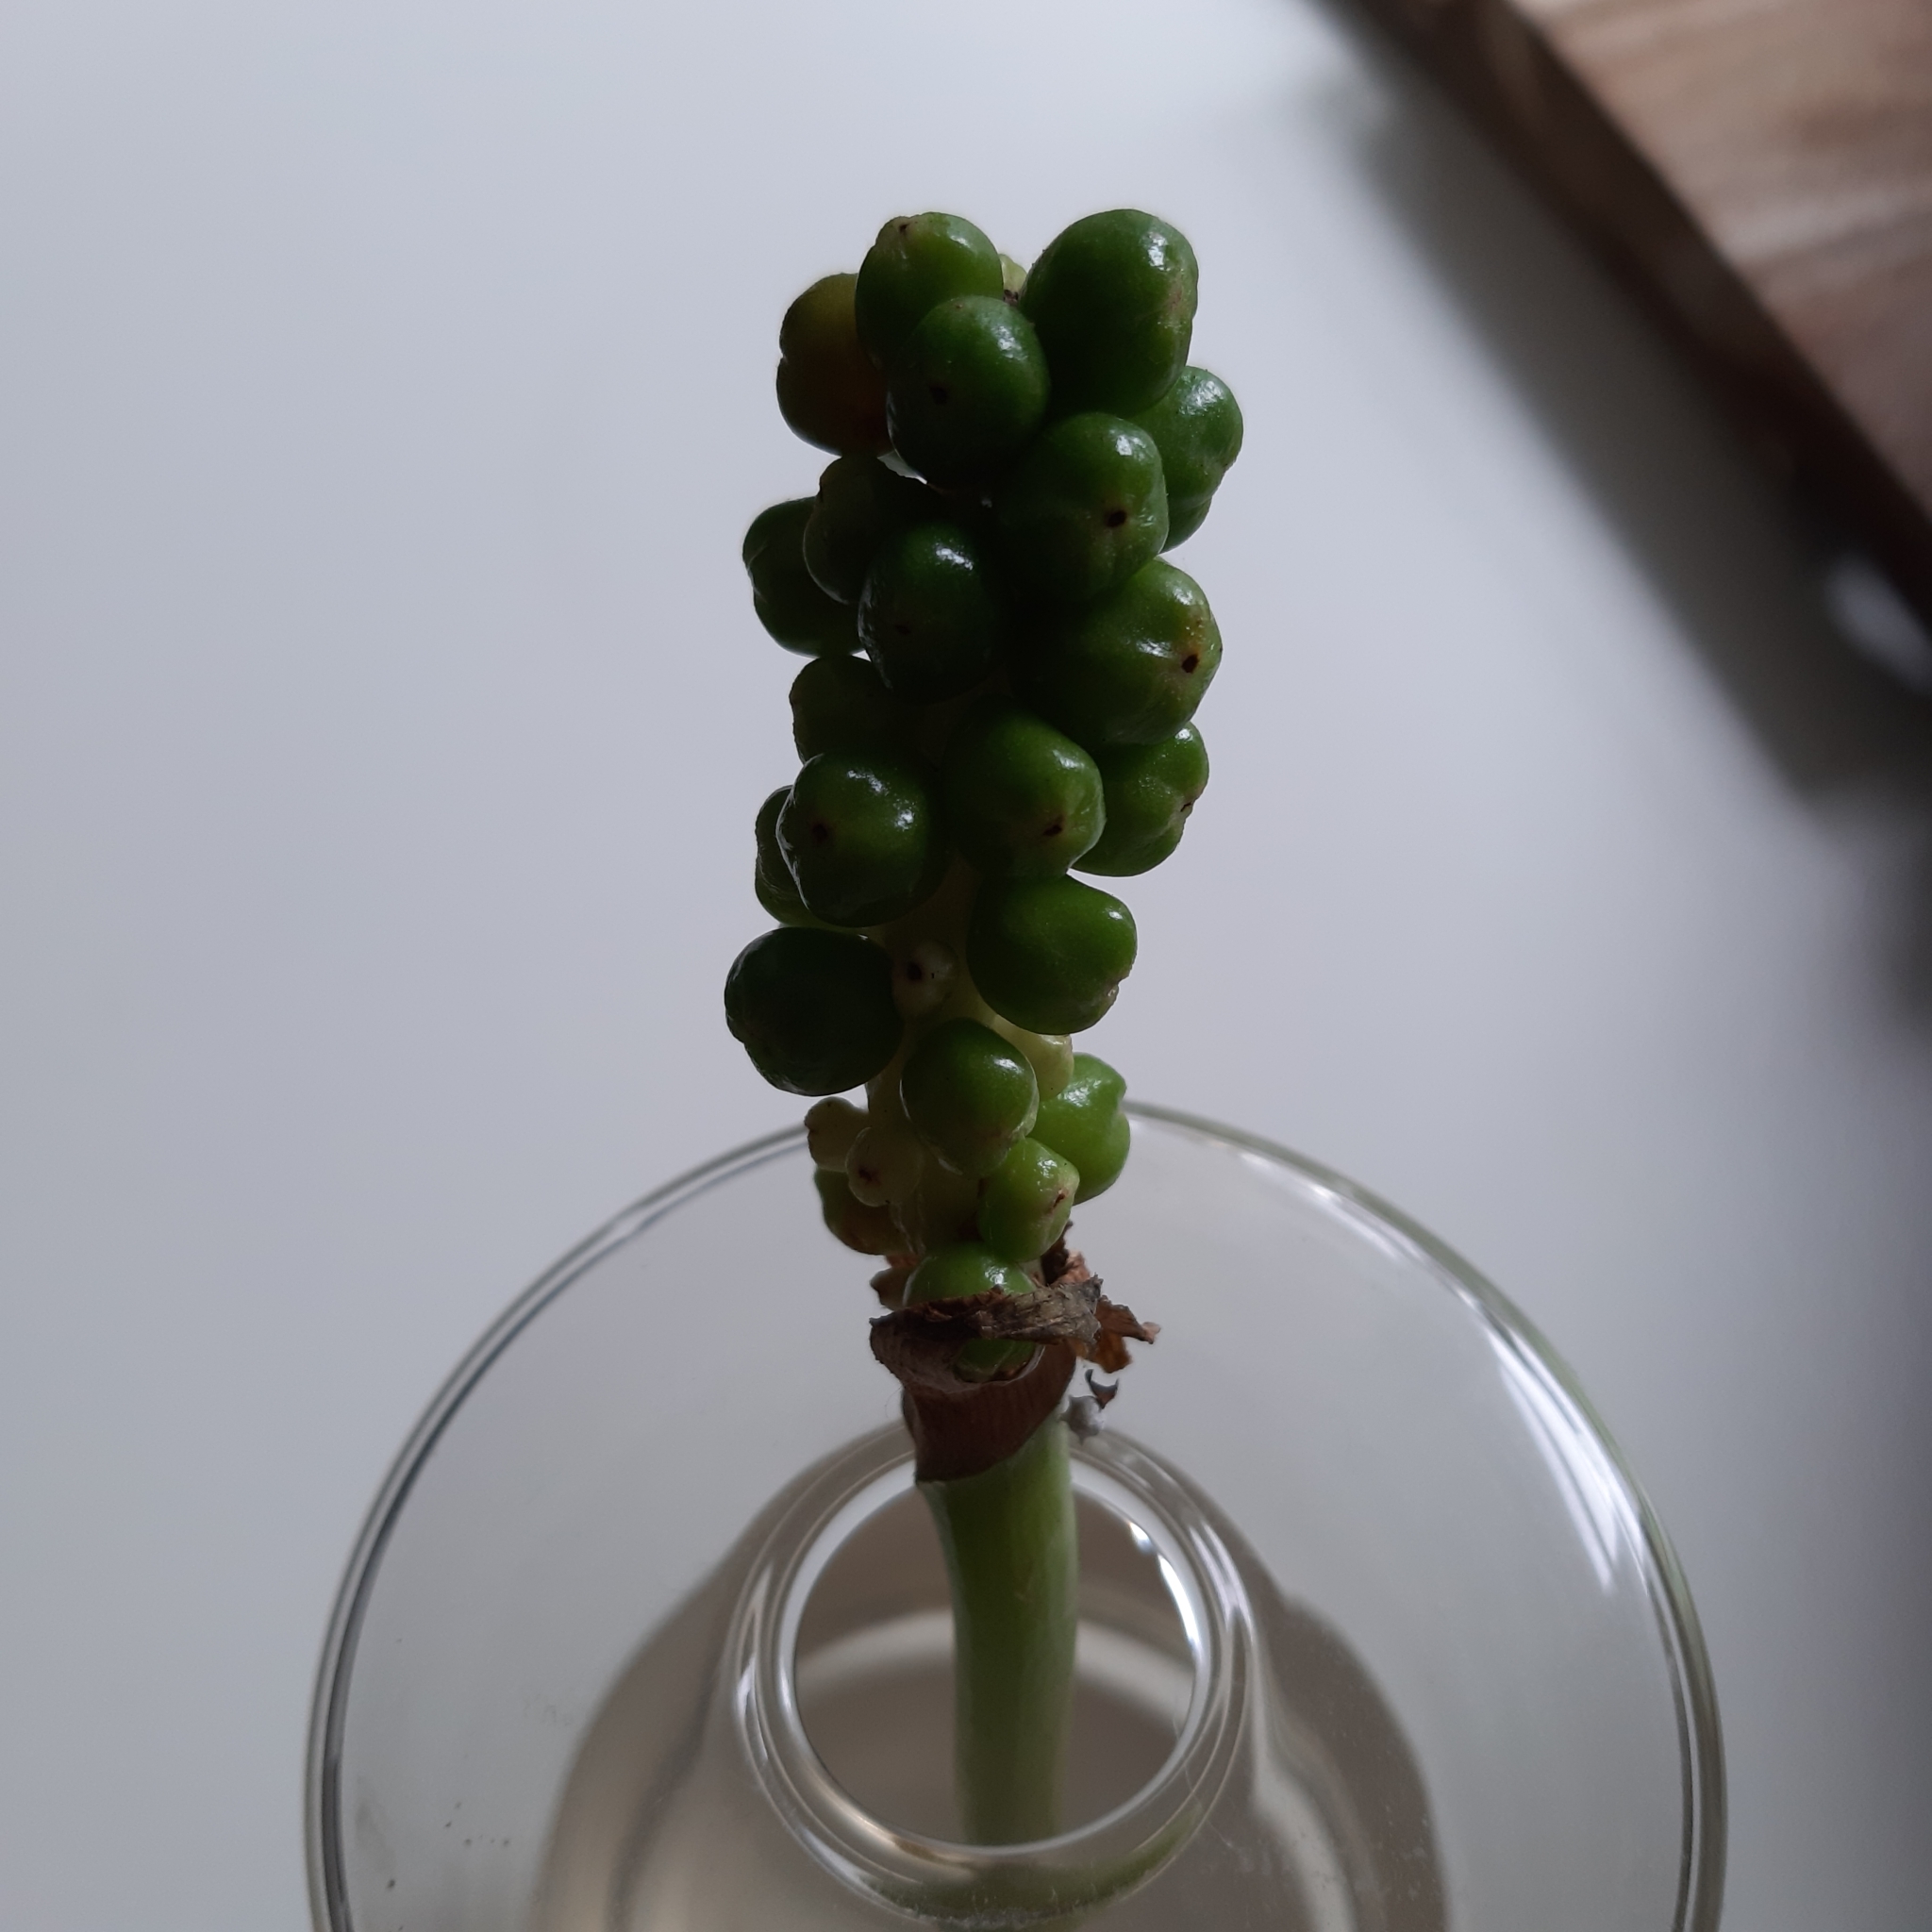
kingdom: Plantae
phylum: Tracheophyta
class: Liliopsida
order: Alismatales
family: Araceae
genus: Arum
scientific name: Arum maculatum
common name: Lords-and-ladies
